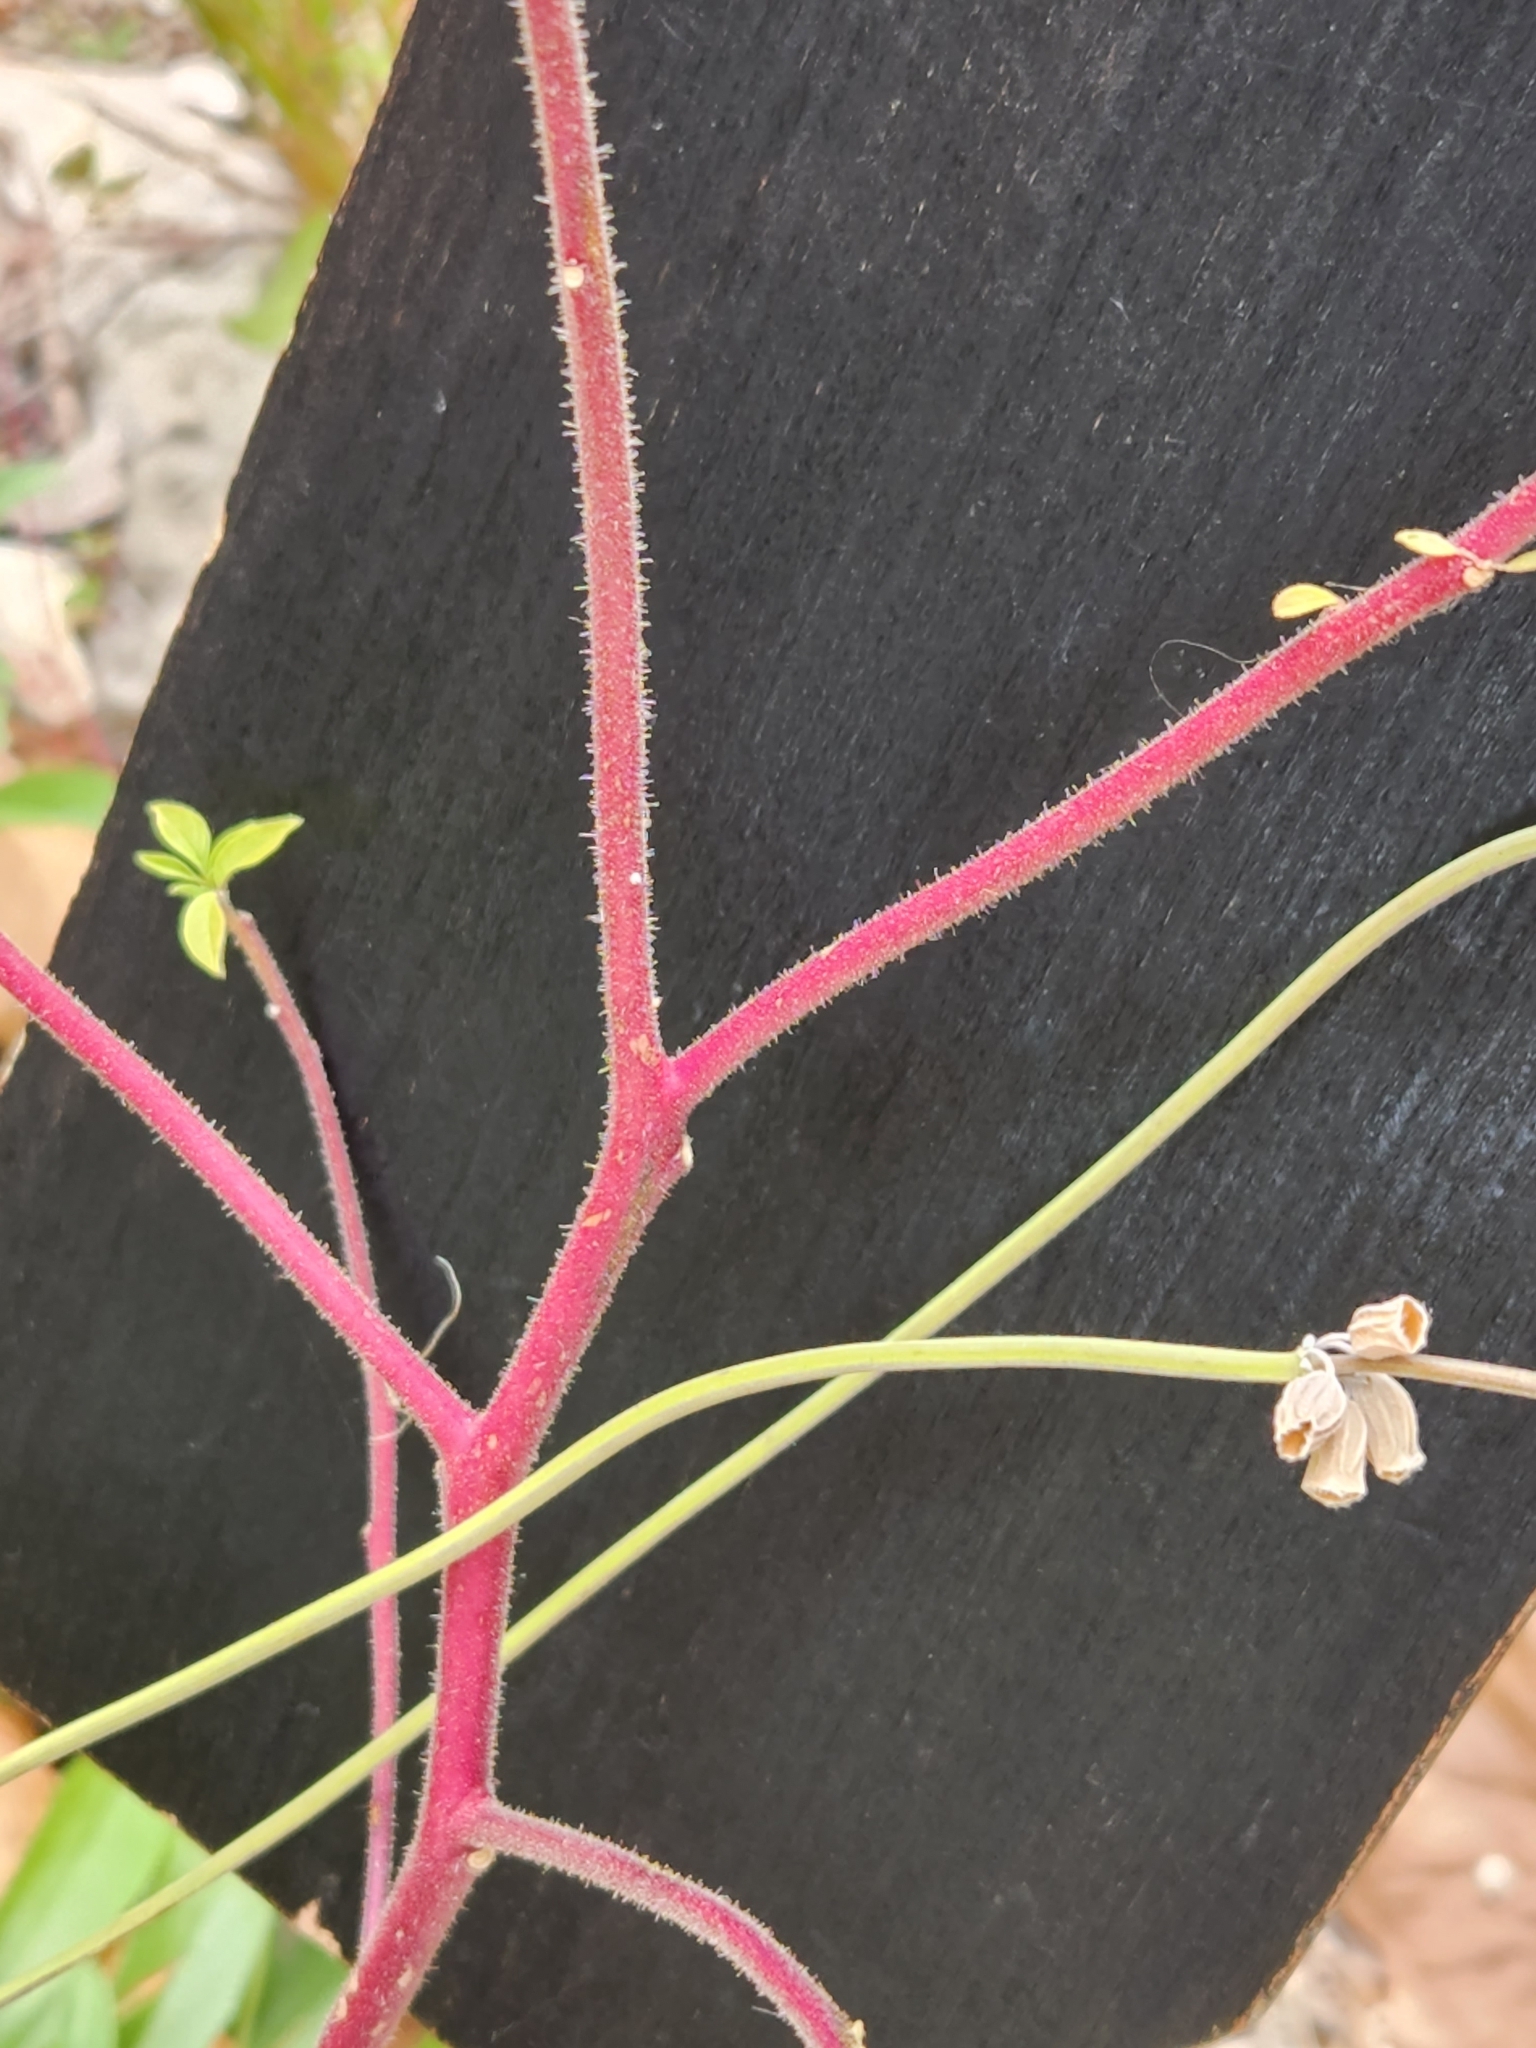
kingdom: Plantae
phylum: Tracheophyta
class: Magnoliopsida
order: Brassicales
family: Cleomaceae
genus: Polanisia
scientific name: Polanisia dodecandra
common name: Clammyweed
